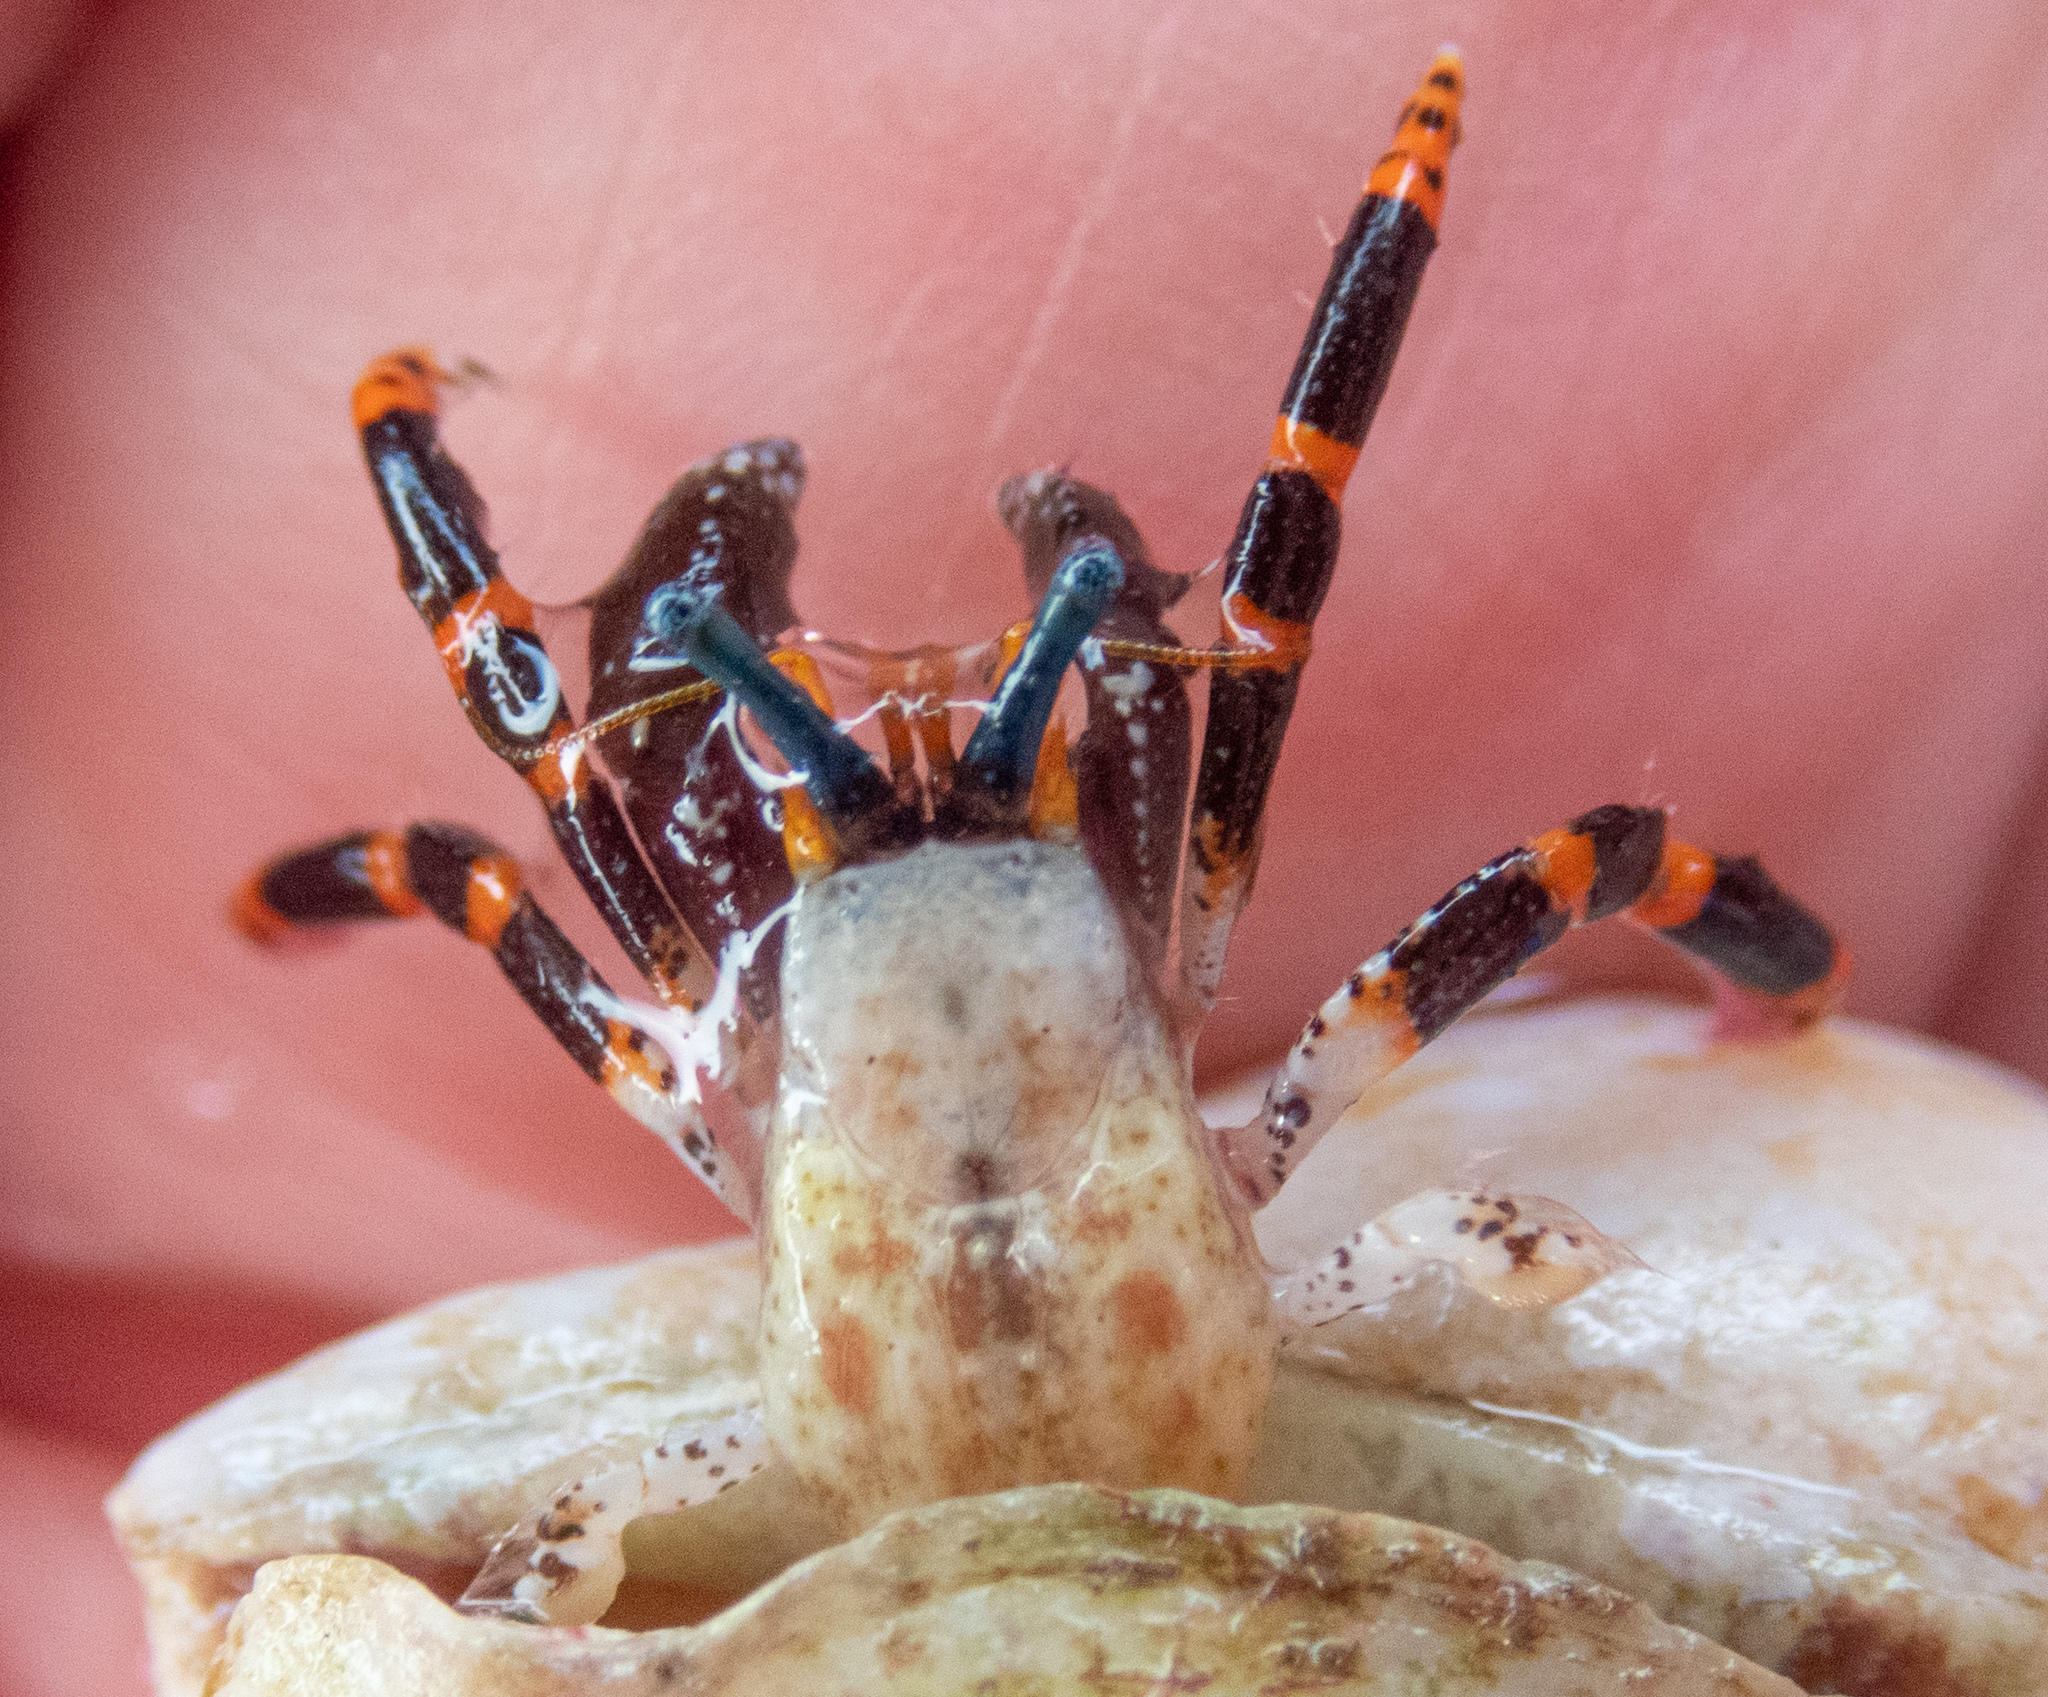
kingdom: Animalia
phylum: Arthropoda
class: Malacostraca
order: Decapoda
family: Diogenidae
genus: Calcinus
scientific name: Calcinus pictus
